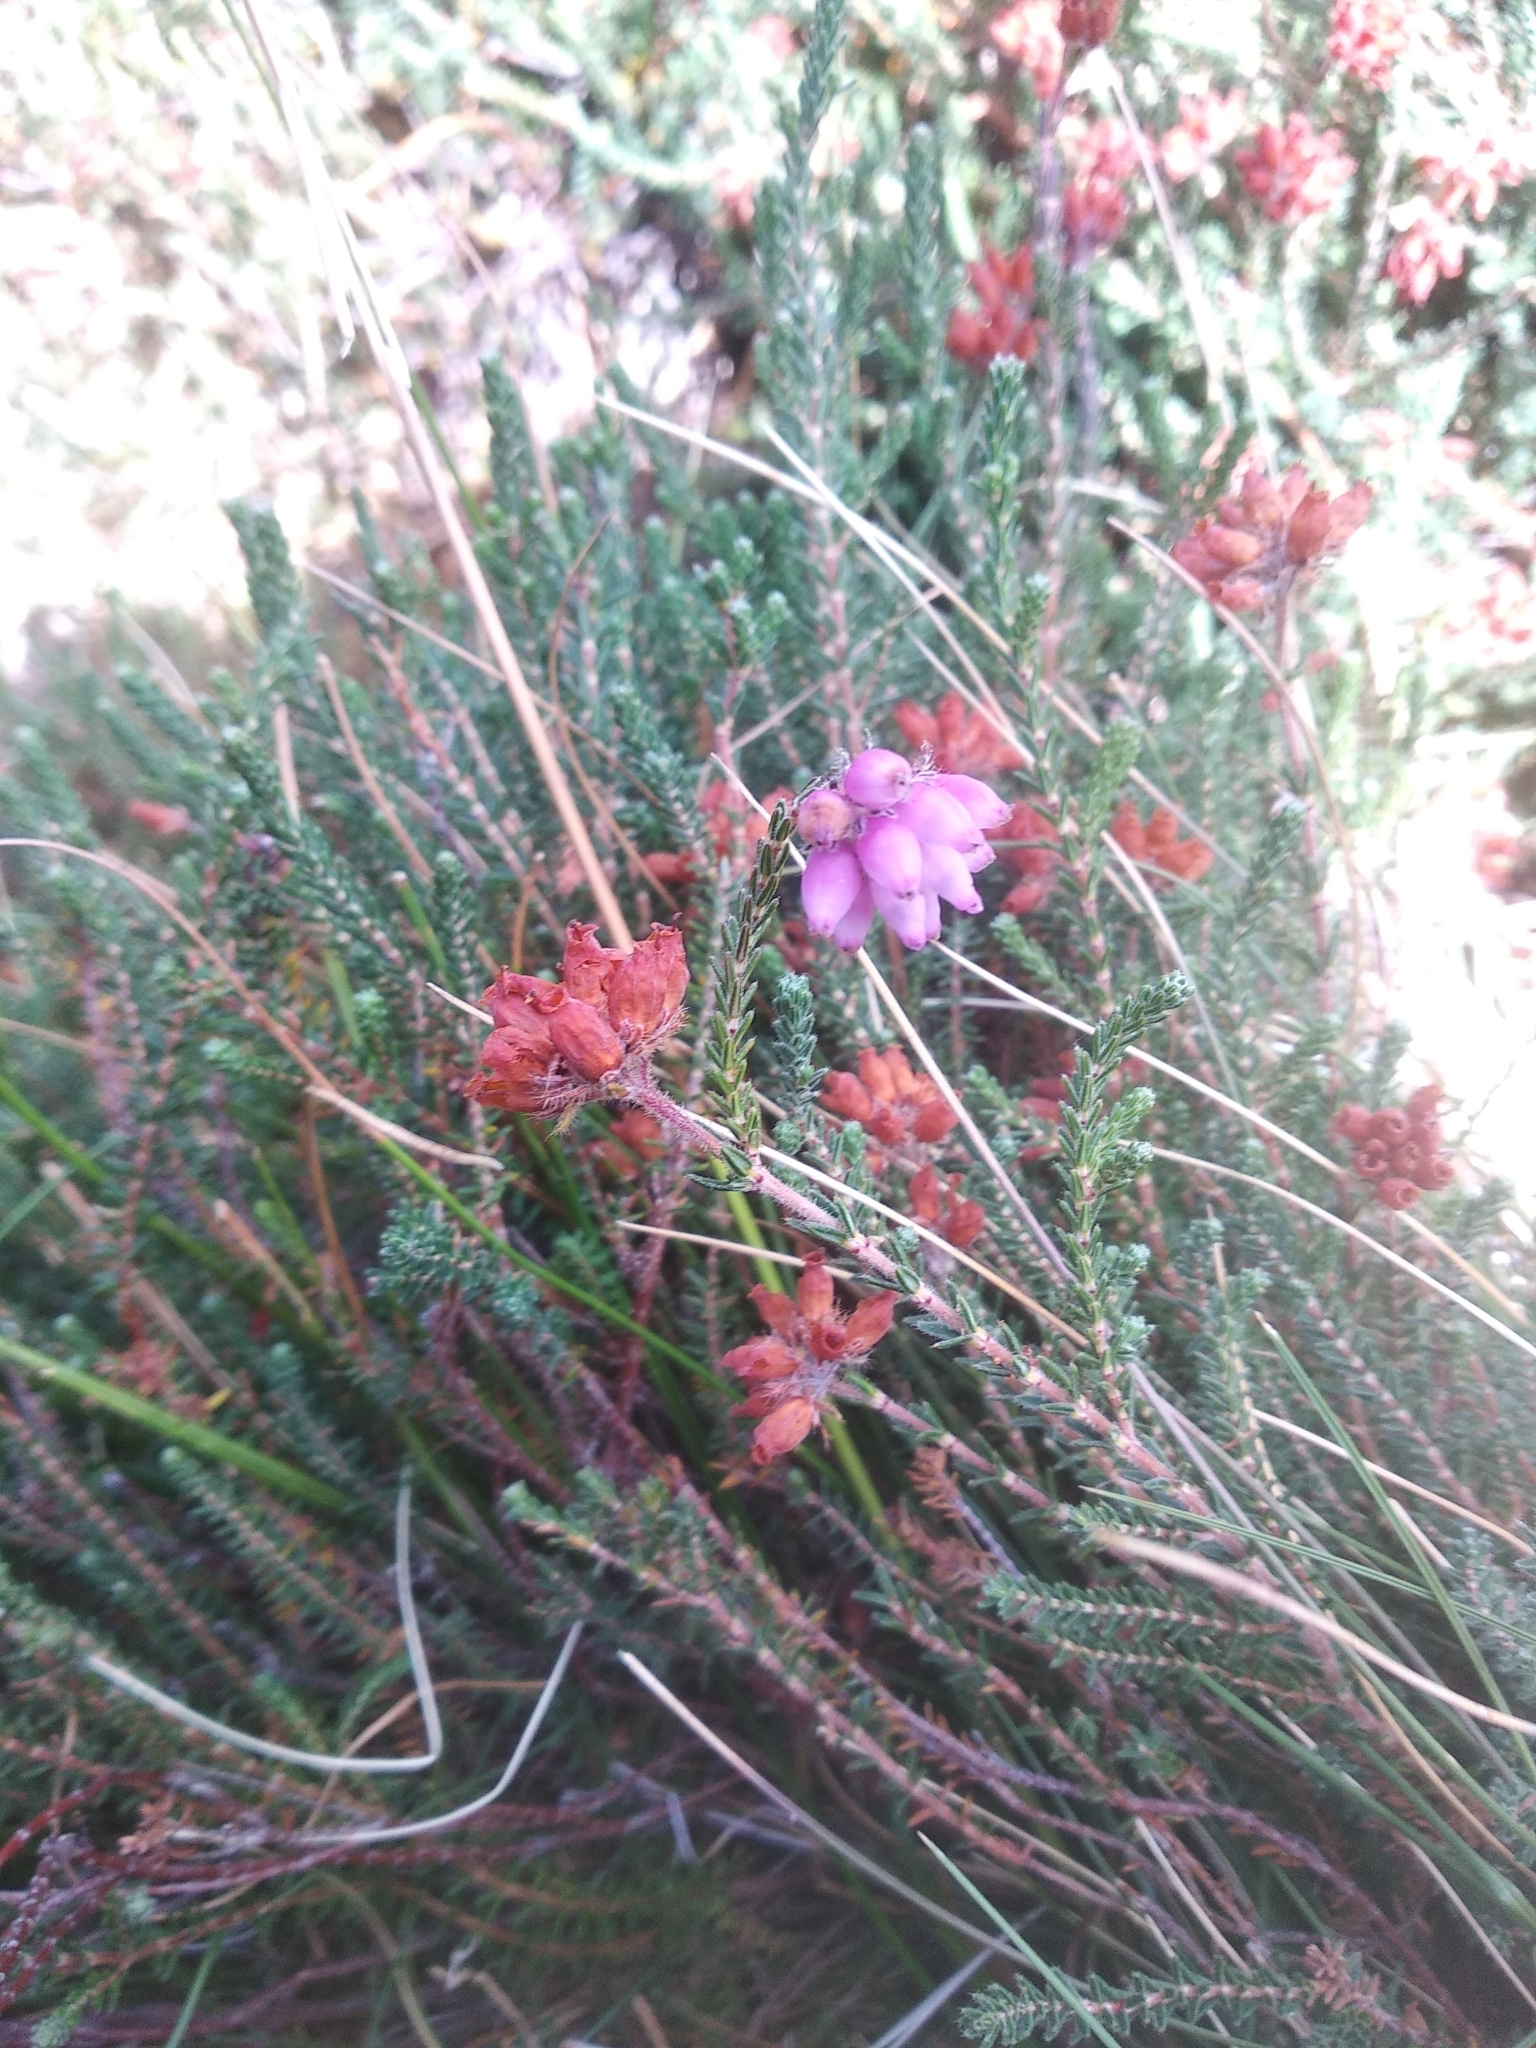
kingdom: Plantae
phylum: Tracheophyta
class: Magnoliopsida
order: Ericales
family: Ericaceae
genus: Erica
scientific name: Erica tetralix
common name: Cross-leaved heath
